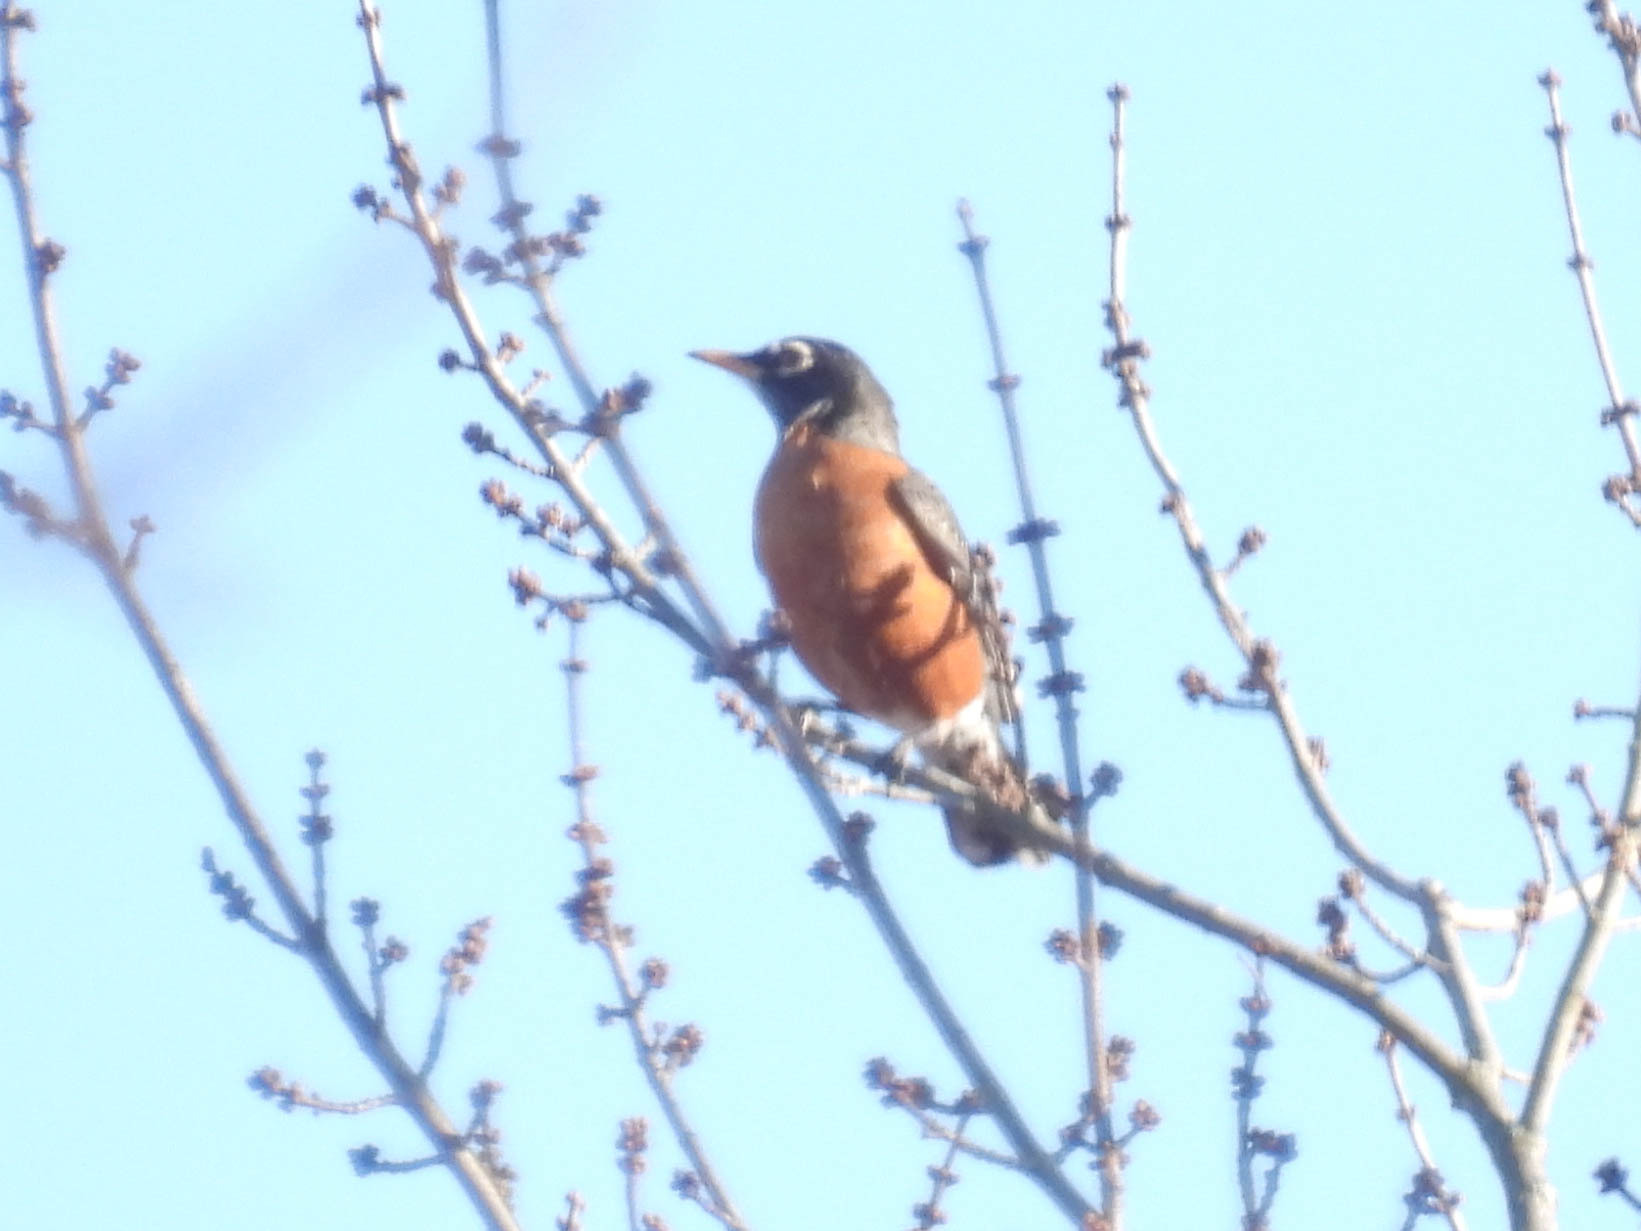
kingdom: Animalia
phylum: Chordata
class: Aves
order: Passeriformes
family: Turdidae
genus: Turdus
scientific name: Turdus migratorius
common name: American robin
